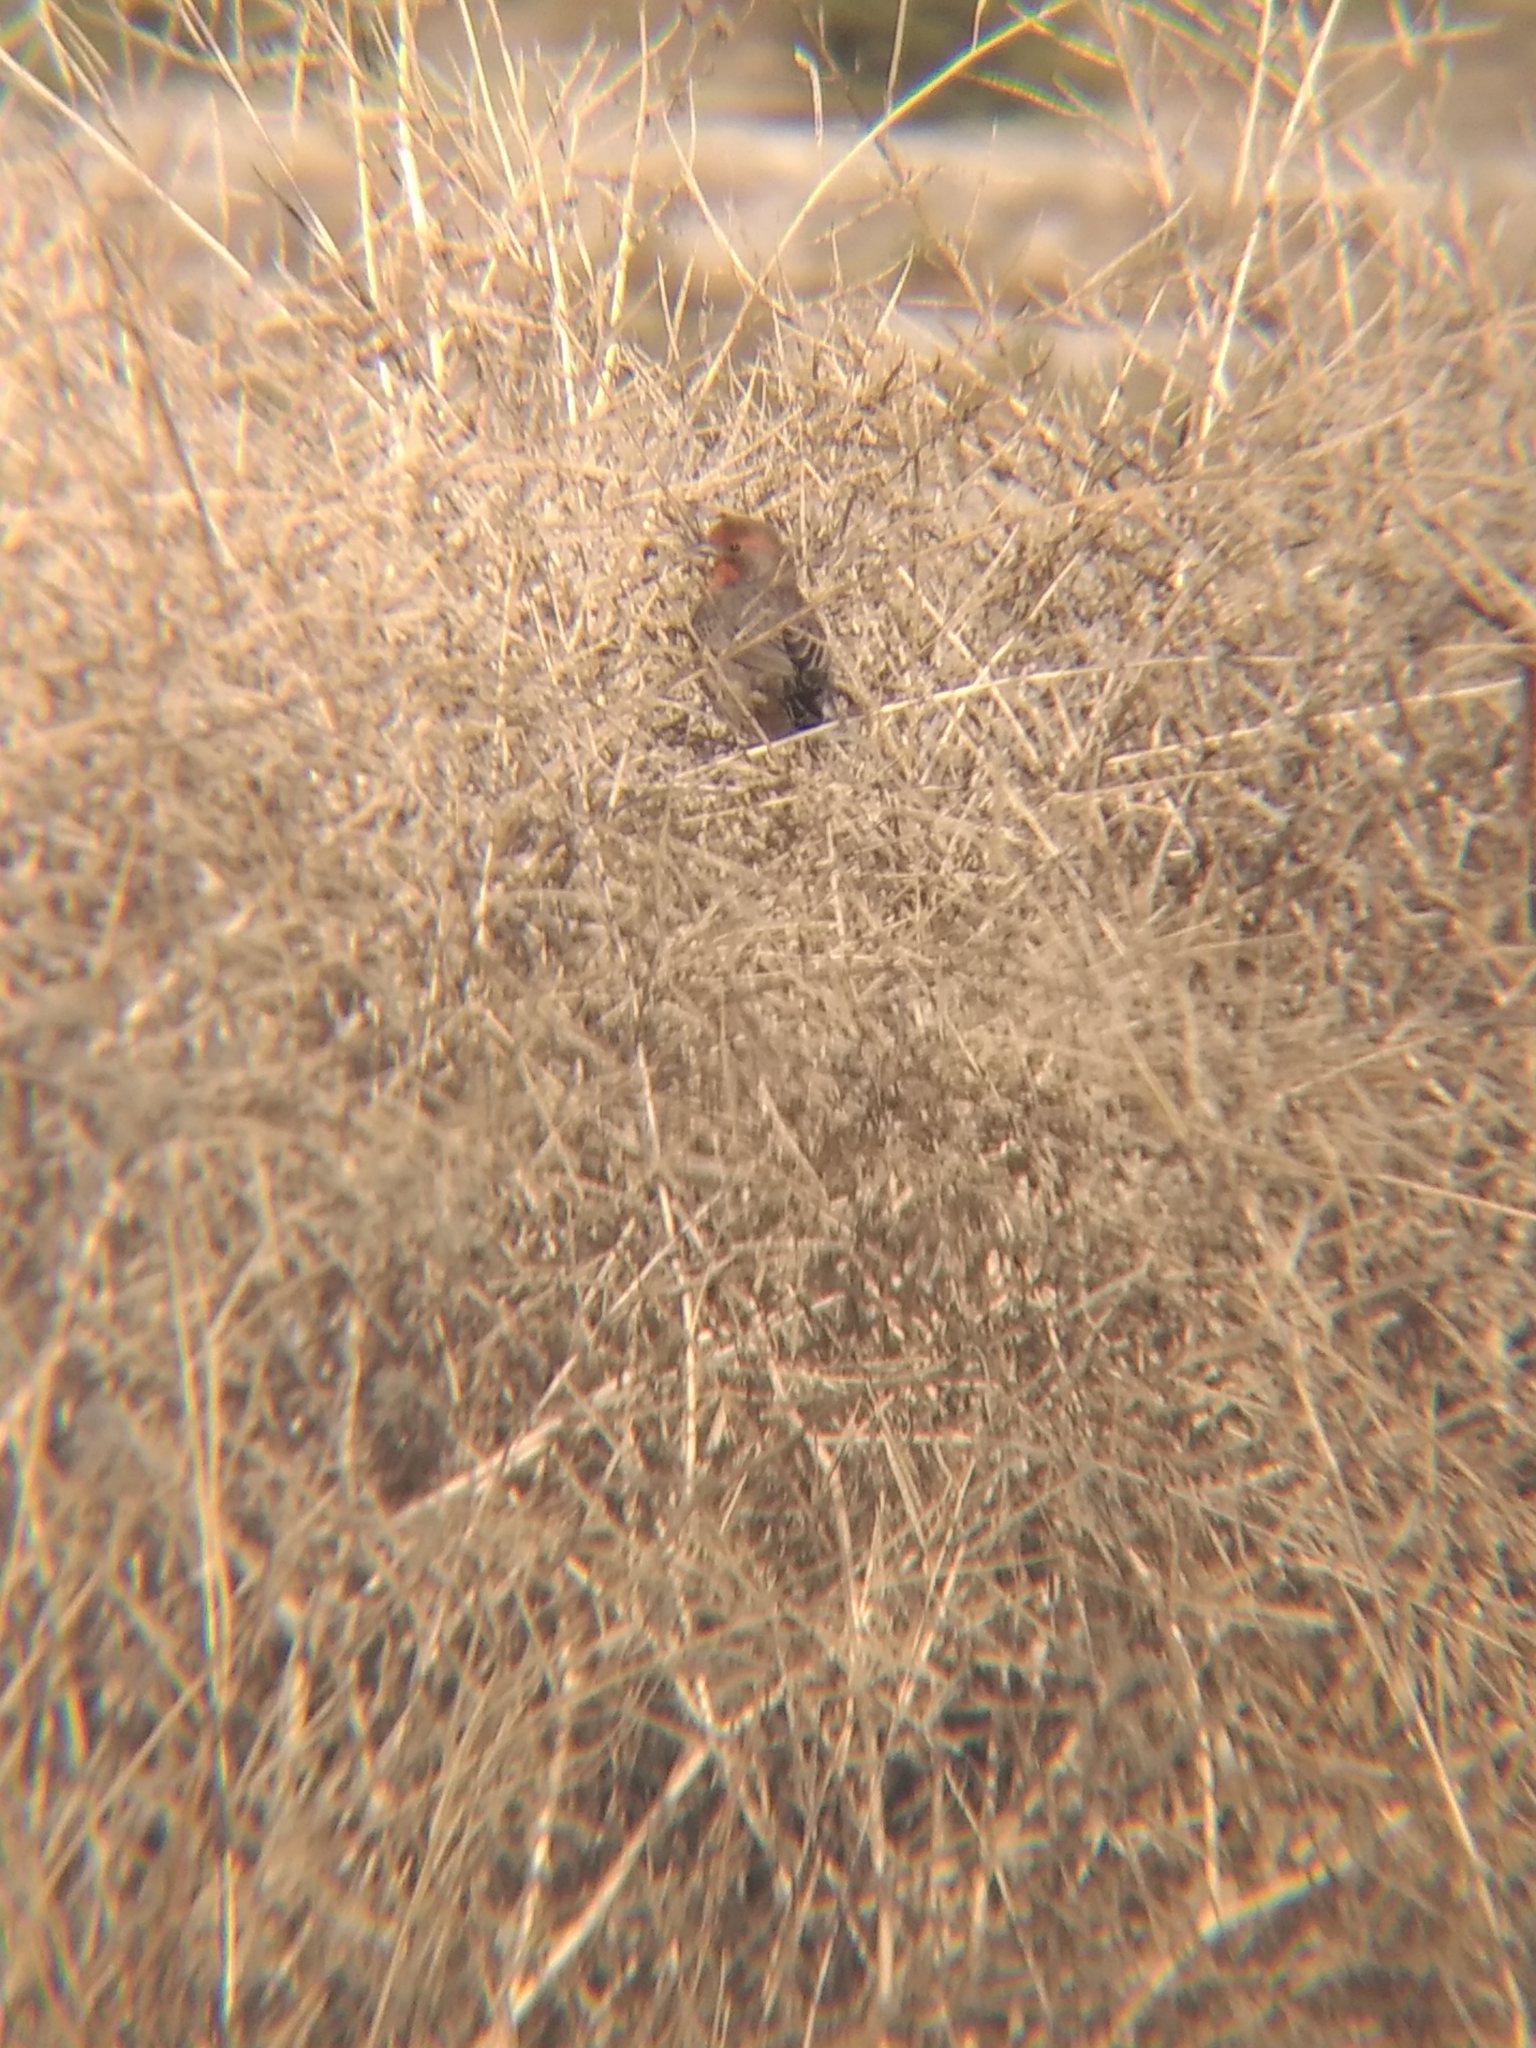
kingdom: Animalia
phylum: Chordata
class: Aves
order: Passeriformes
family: Fringillidae
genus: Haemorhous
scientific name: Haemorhous mexicanus
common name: House finch
